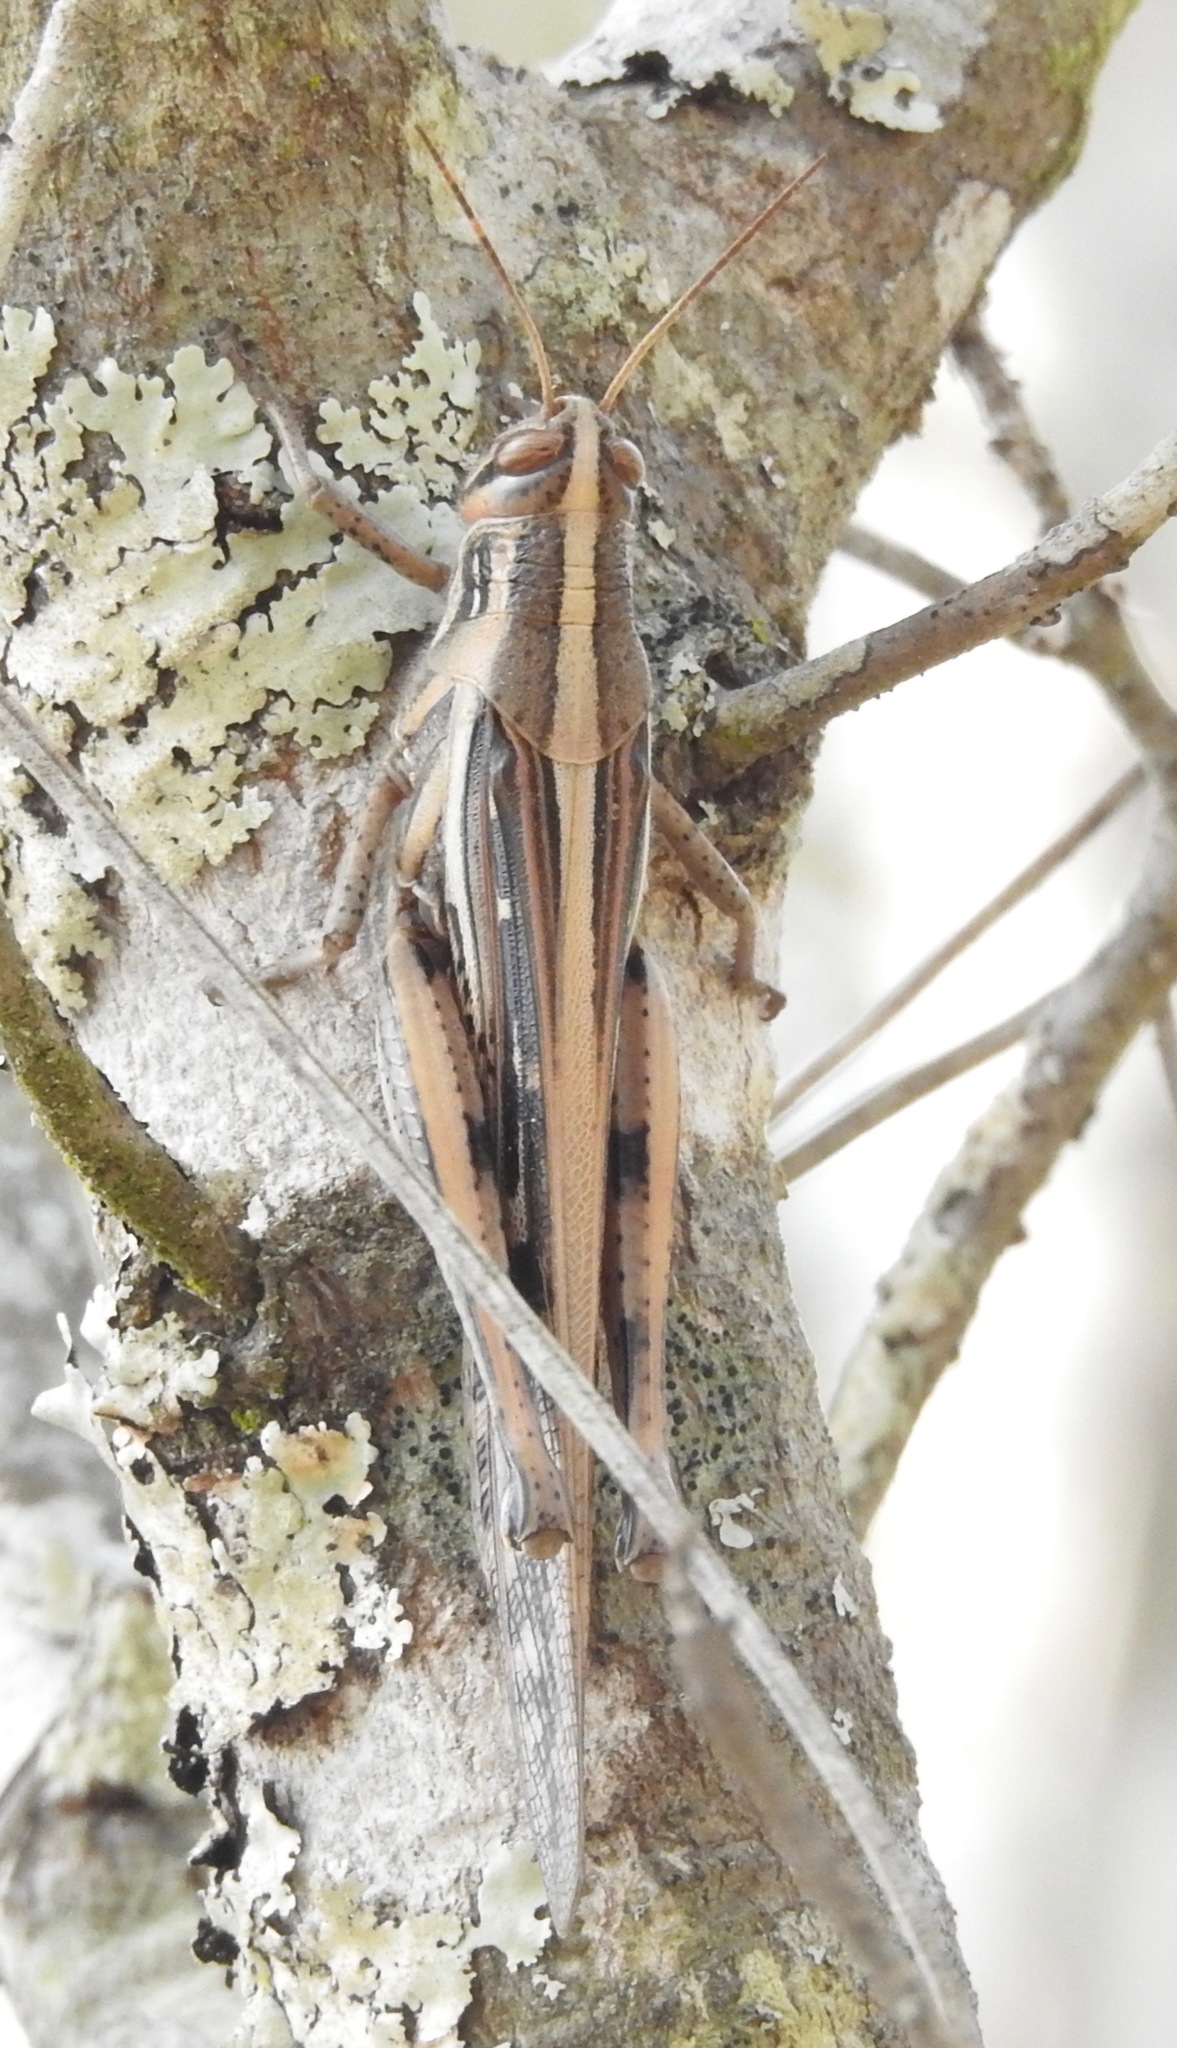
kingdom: Animalia
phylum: Arthropoda
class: Insecta
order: Orthoptera
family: Acrididae
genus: Schistocerca
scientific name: Schistocerca americana
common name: American bird locust
